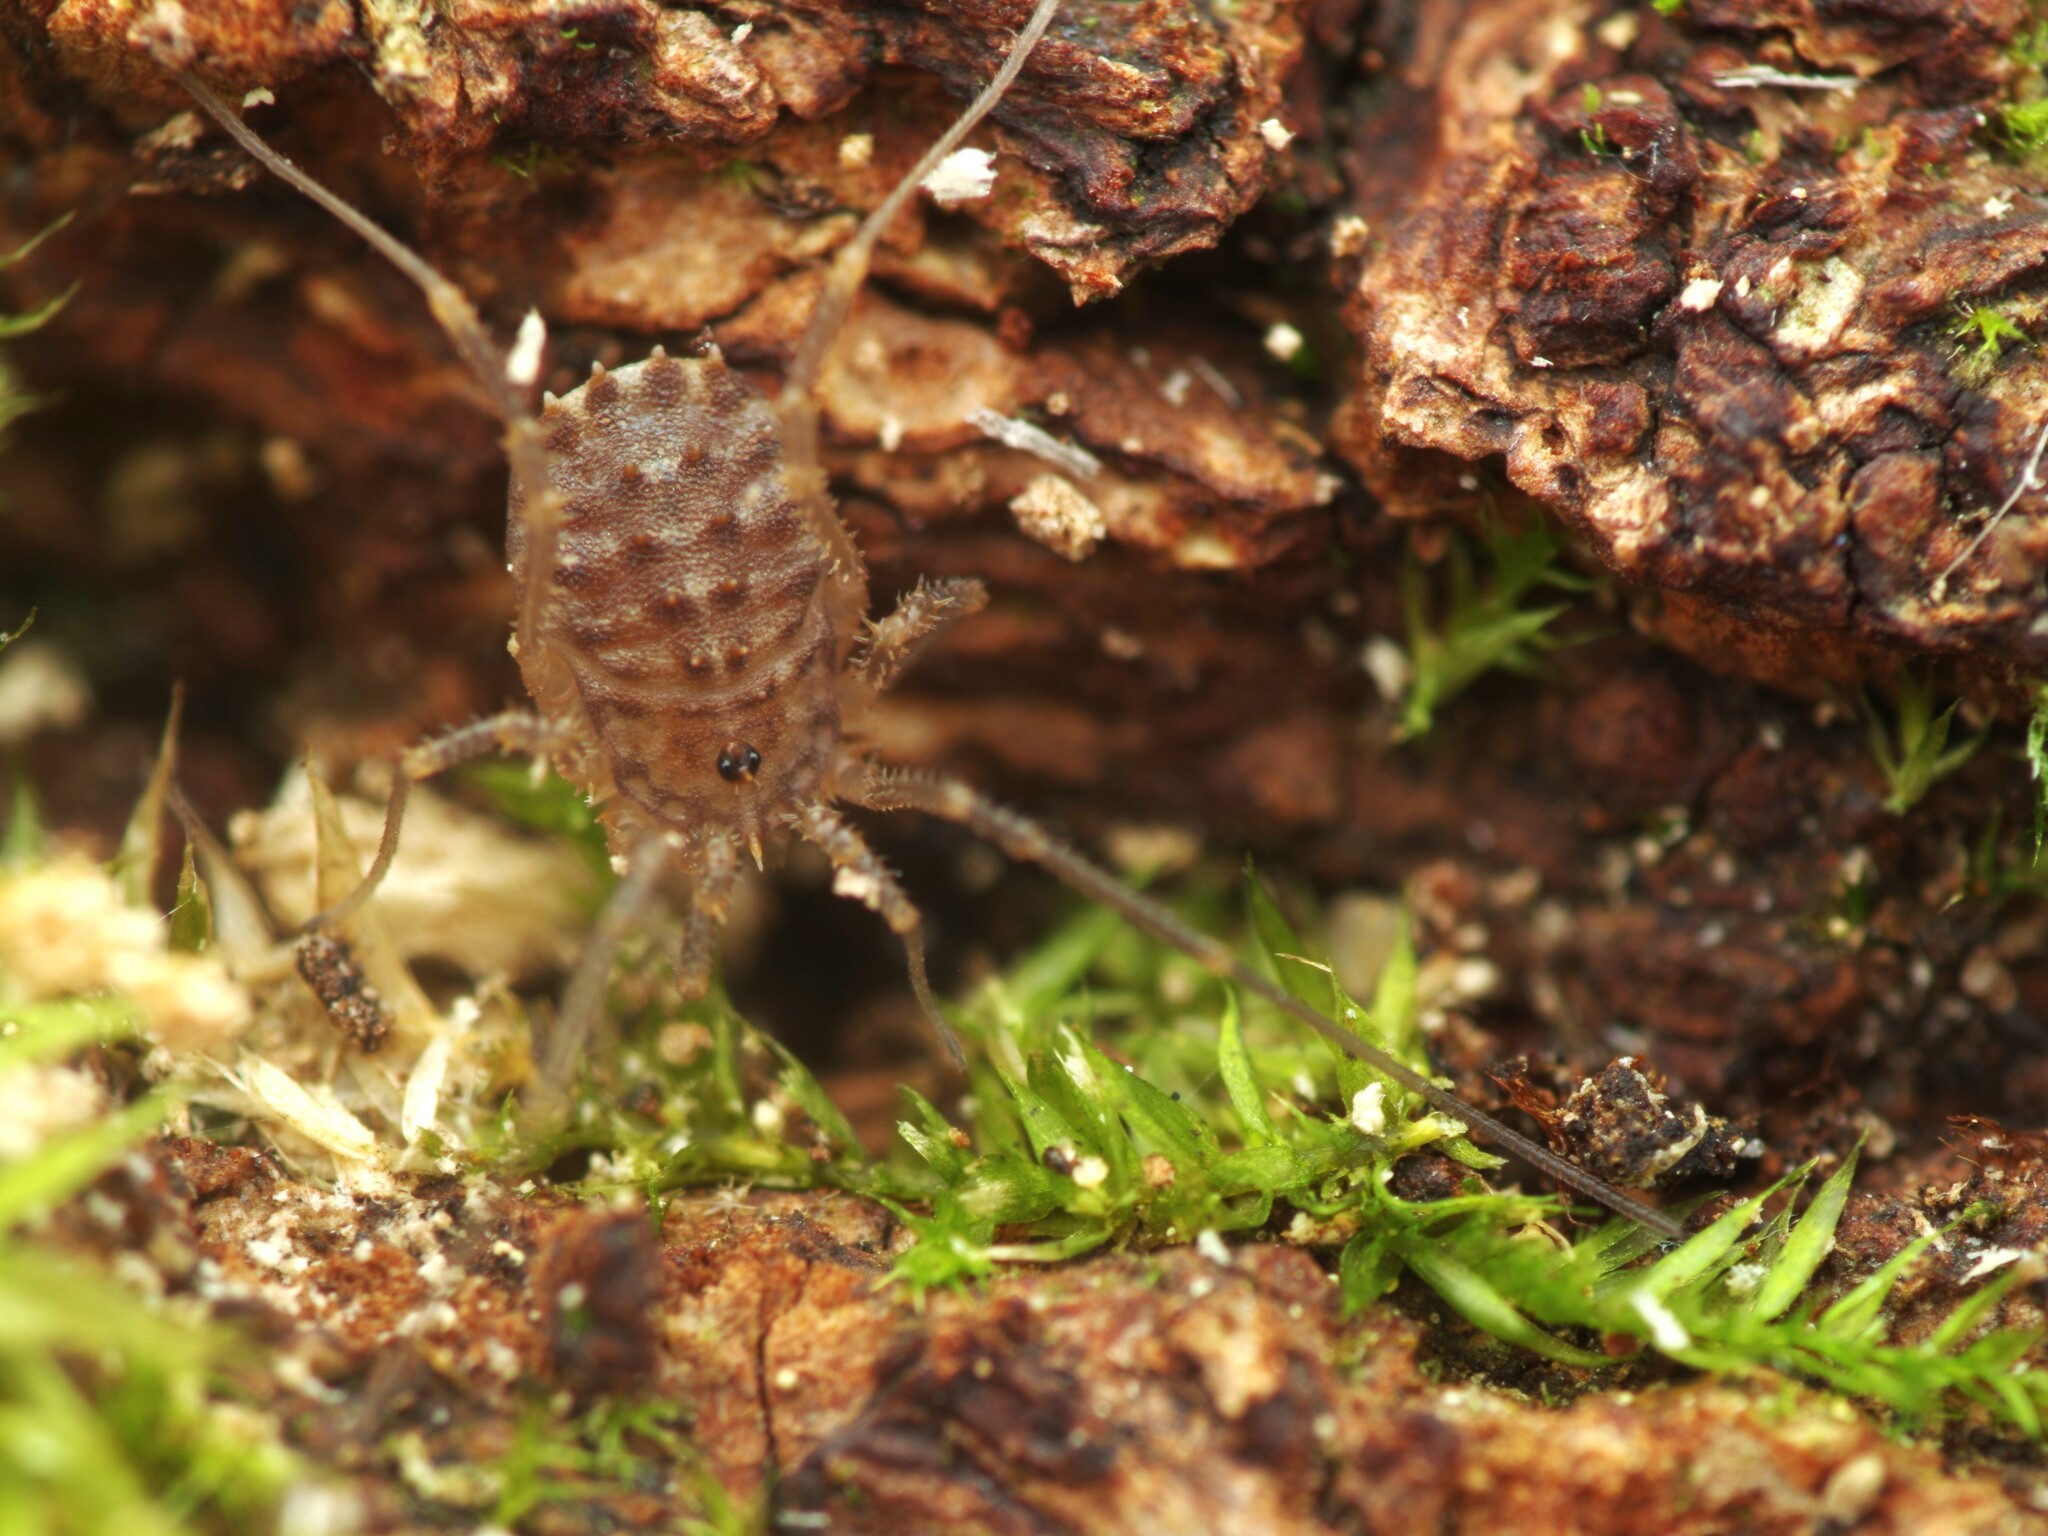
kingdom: Animalia
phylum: Arthropoda
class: Arachnida
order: Opiliones
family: Sclerosomatidae
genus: Homalenotus
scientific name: Homalenotus quadridentatus
